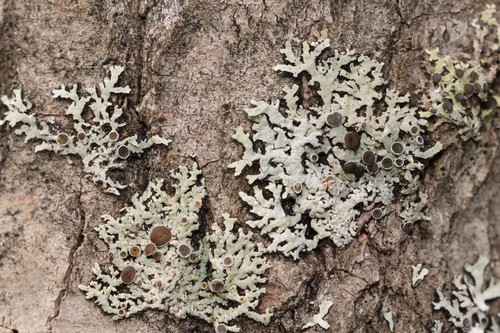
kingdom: Fungi
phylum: Ascomycota
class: Lecanoromycetes
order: Caliciales
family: Physciaceae
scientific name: Physciaceae
